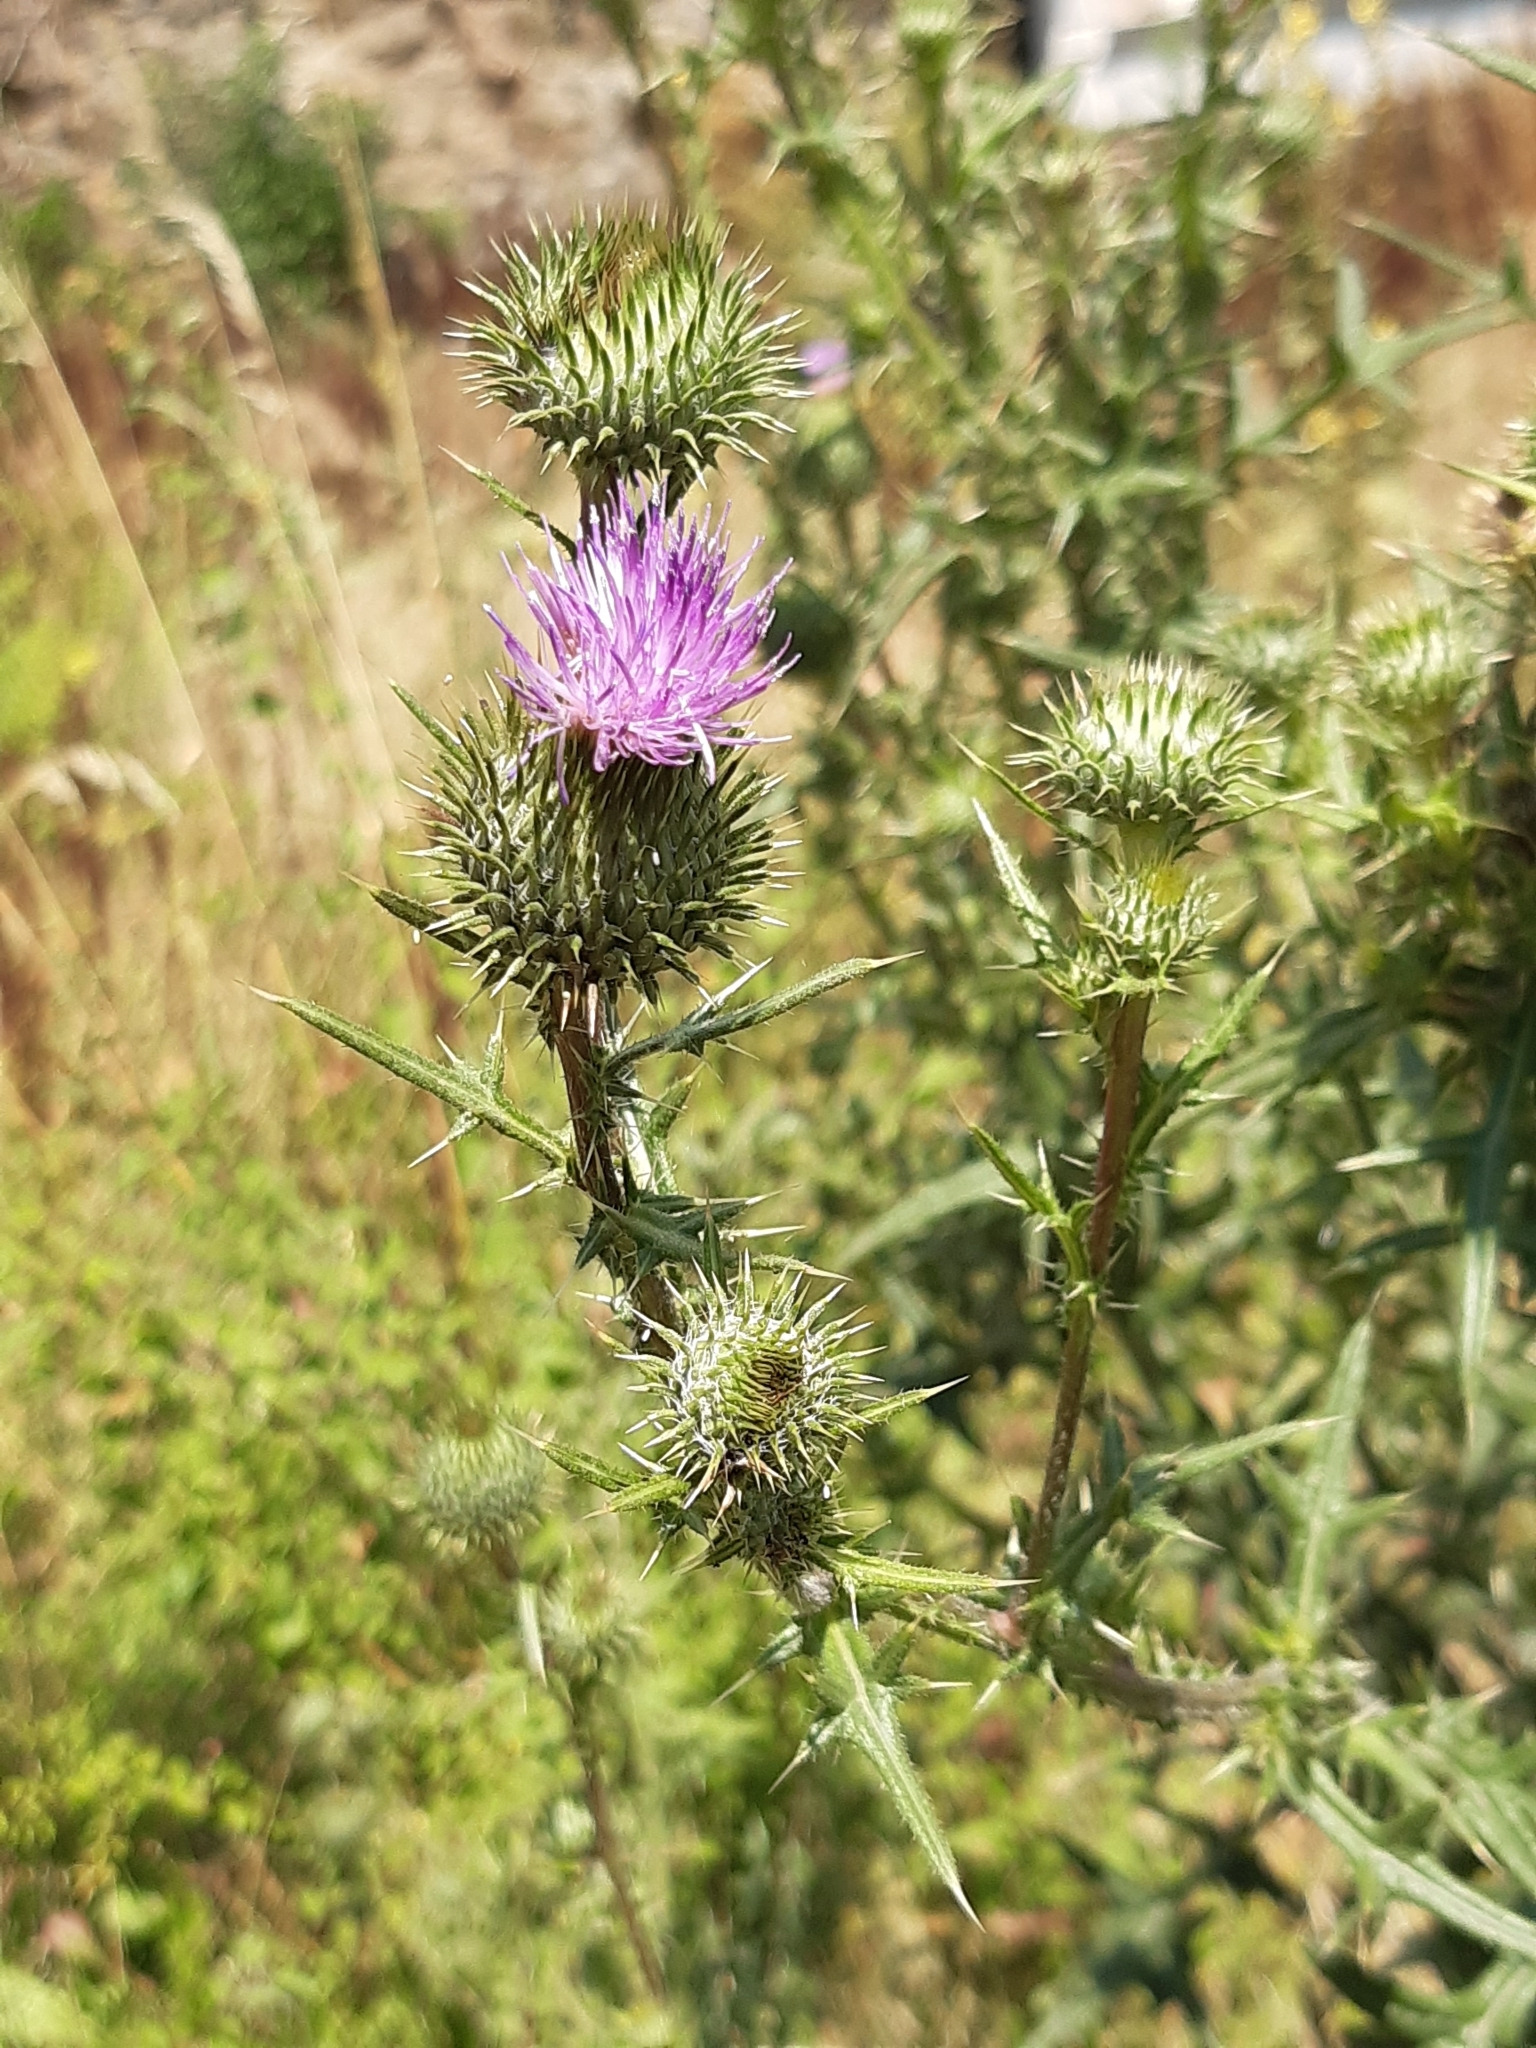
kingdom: Plantae
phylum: Tracheophyta
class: Magnoliopsida
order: Asterales
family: Asteraceae
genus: Cirsium
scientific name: Cirsium vulgare
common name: Bull thistle
